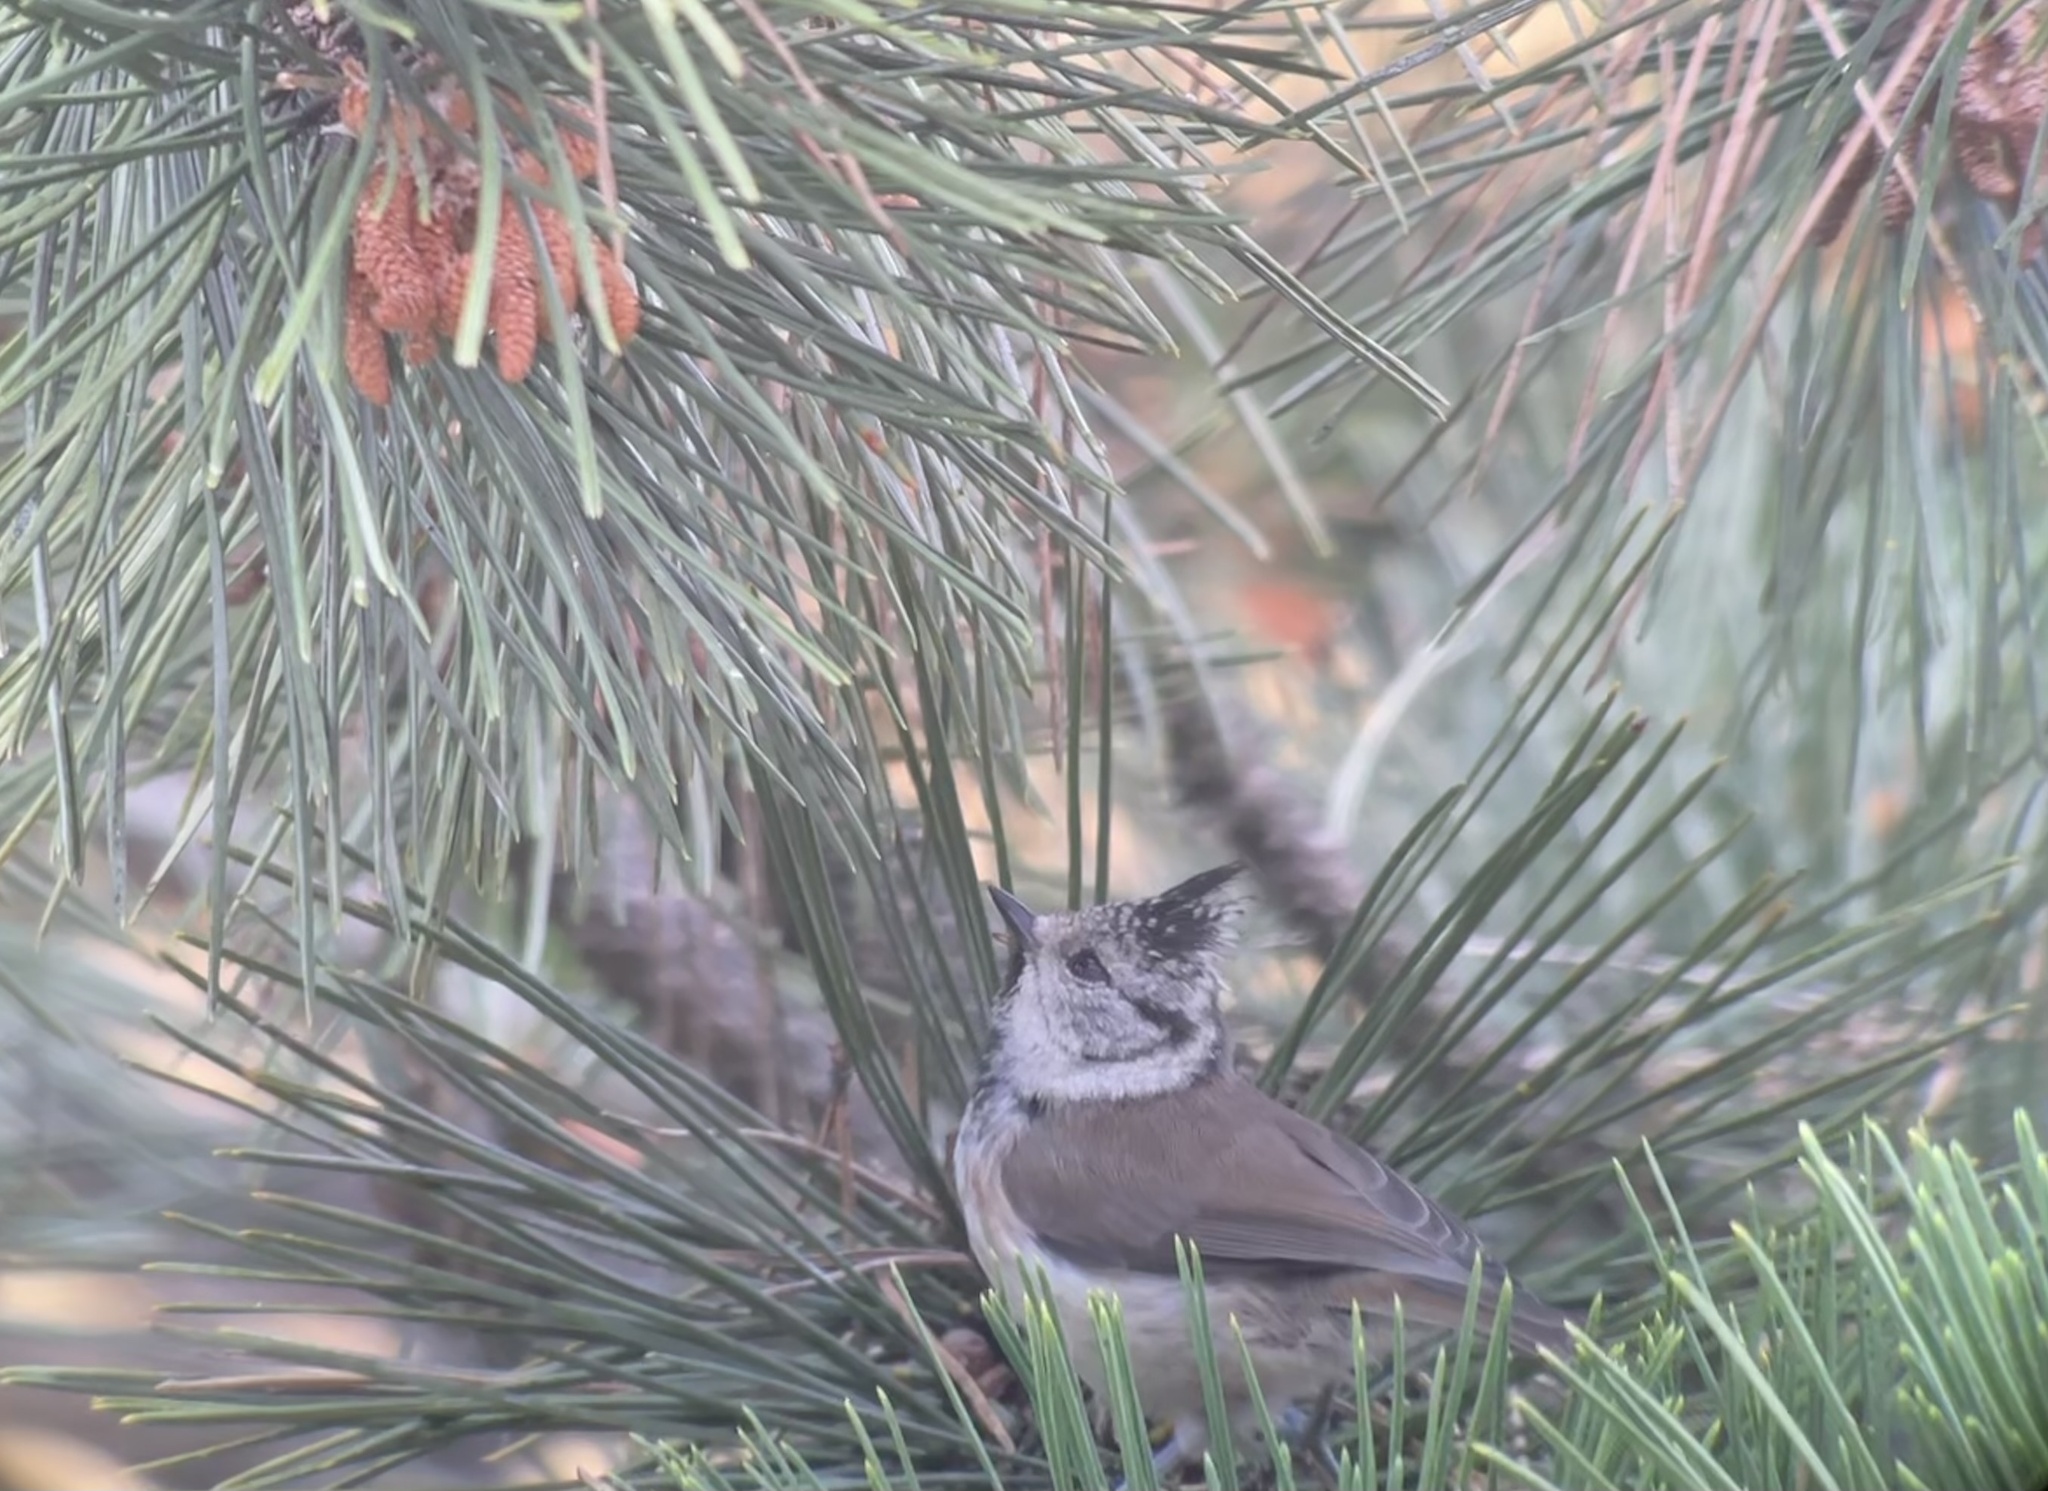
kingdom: Animalia
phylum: Chordata
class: Aves
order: Passeriformes
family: Paridae
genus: Lophophanes
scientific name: Lophophanes cristatus
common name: European crested tit
